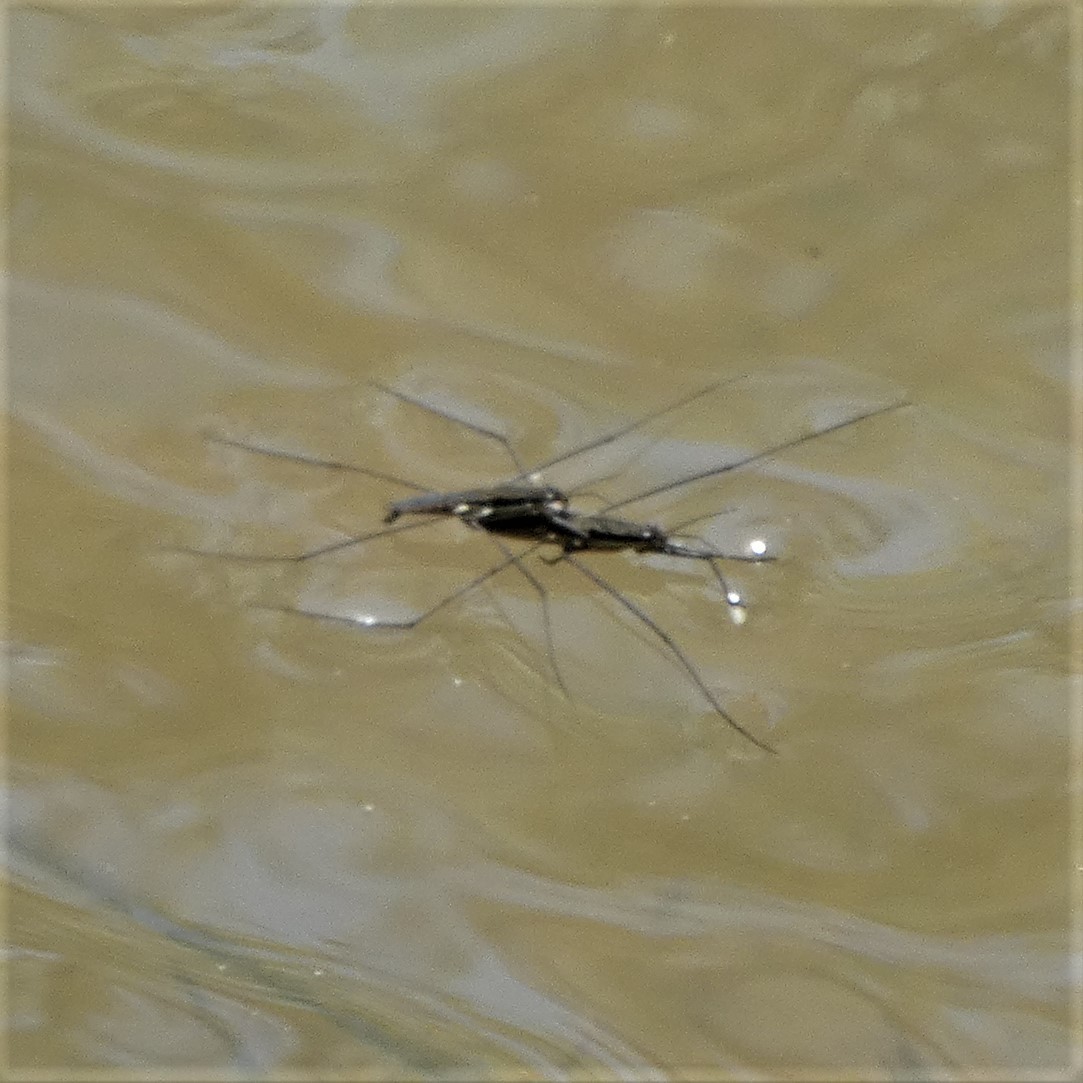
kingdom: Animalia
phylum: Arthropoda
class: Insecta
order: Hemiptera
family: Gerridae
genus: Aquarius
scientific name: Aquarius
